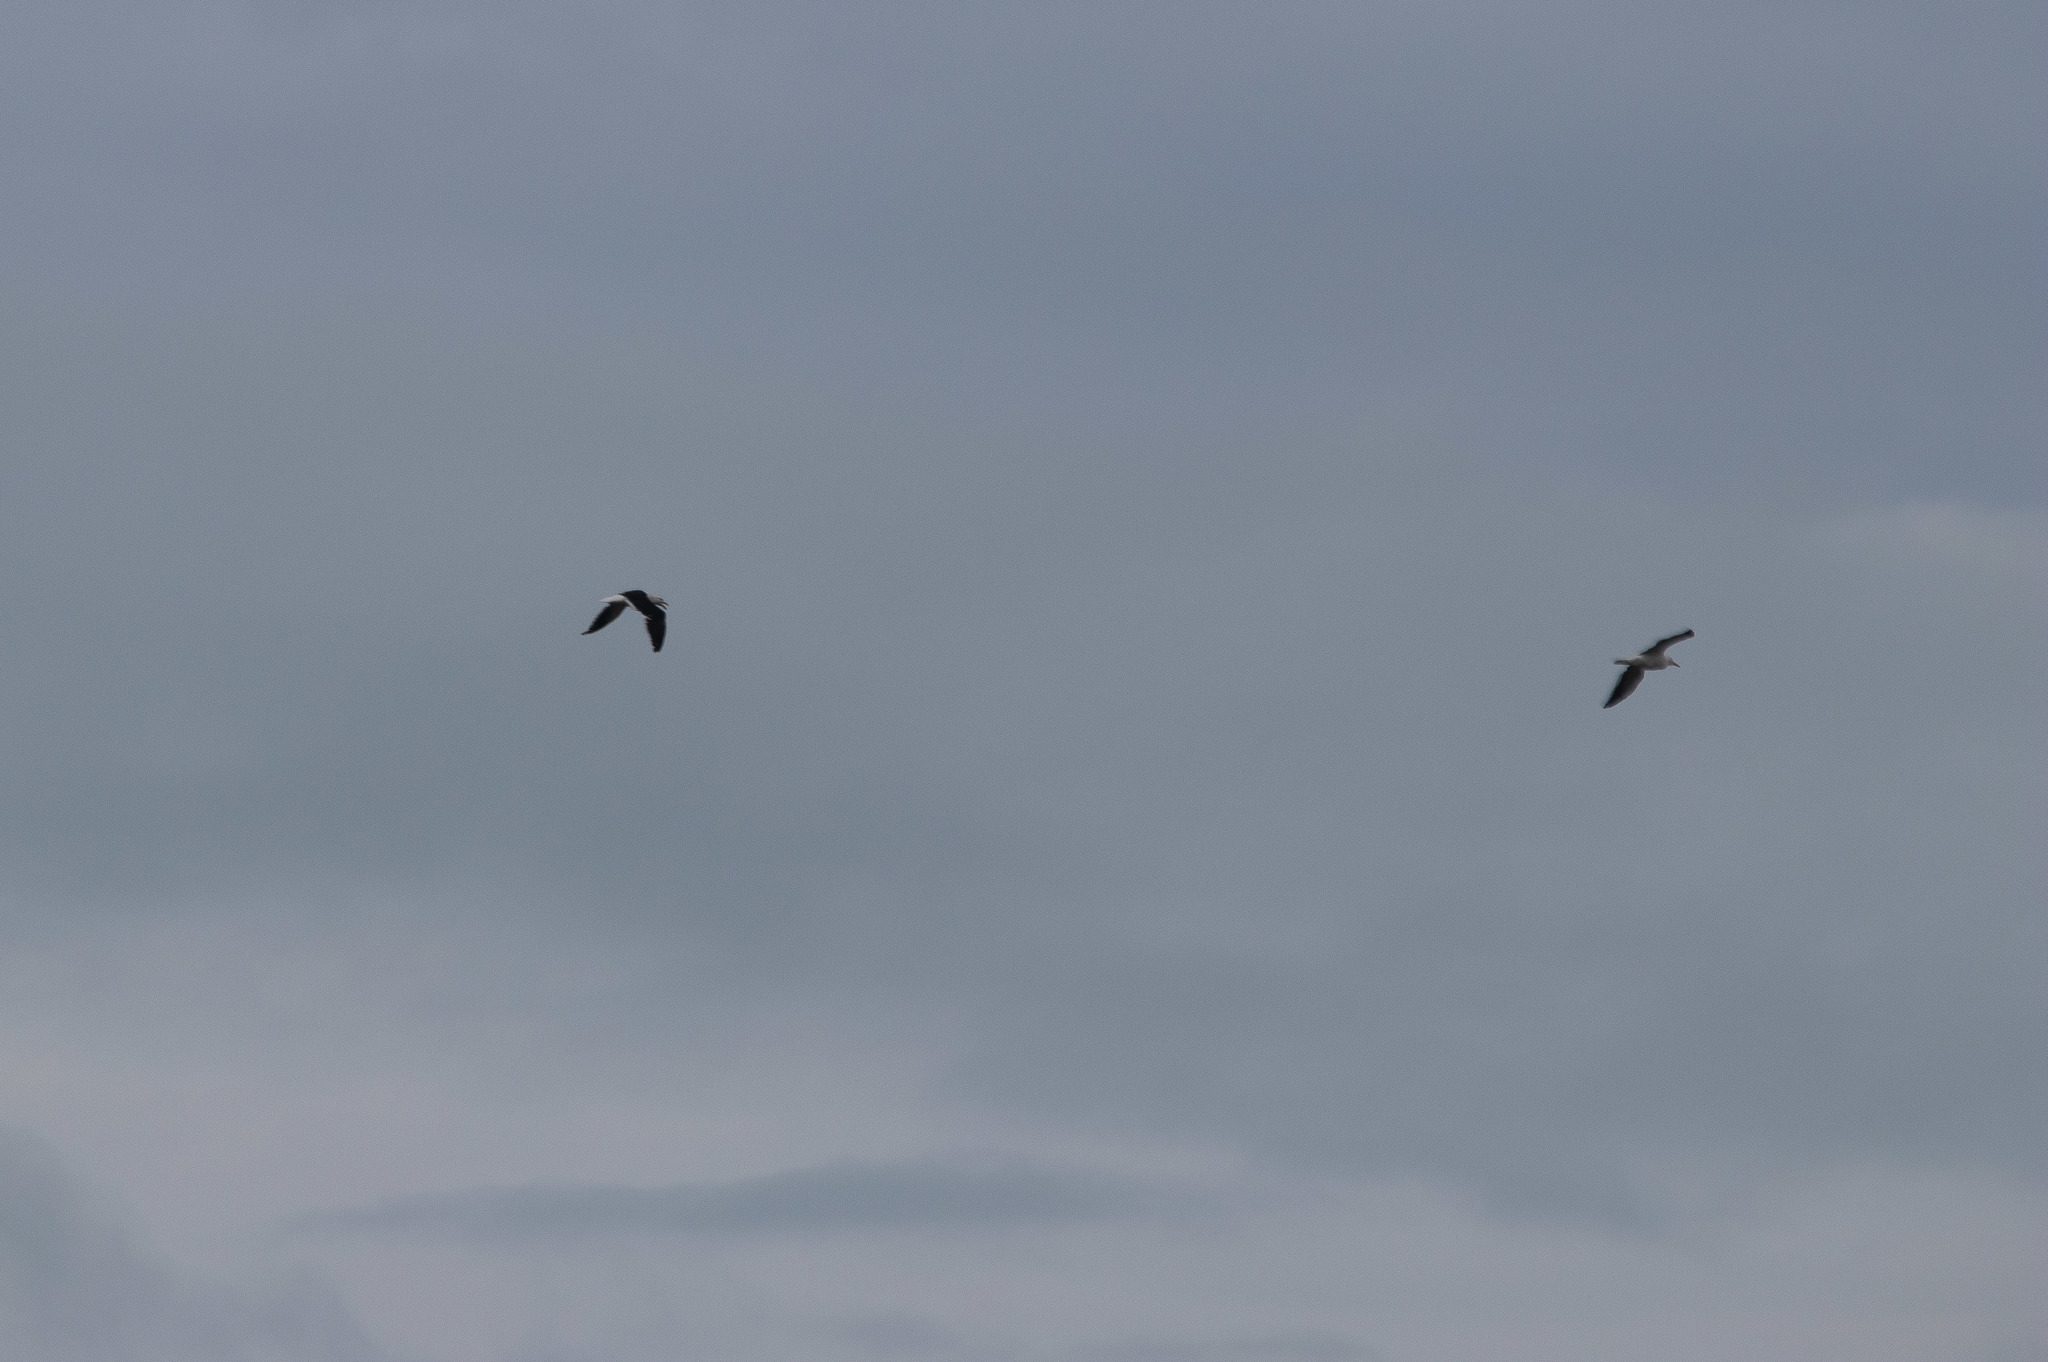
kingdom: Animalia
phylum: Chordata
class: Aves
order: Charadriiformes
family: Laridae
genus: Larus
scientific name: Larus dominicanus
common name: Kelp gull
